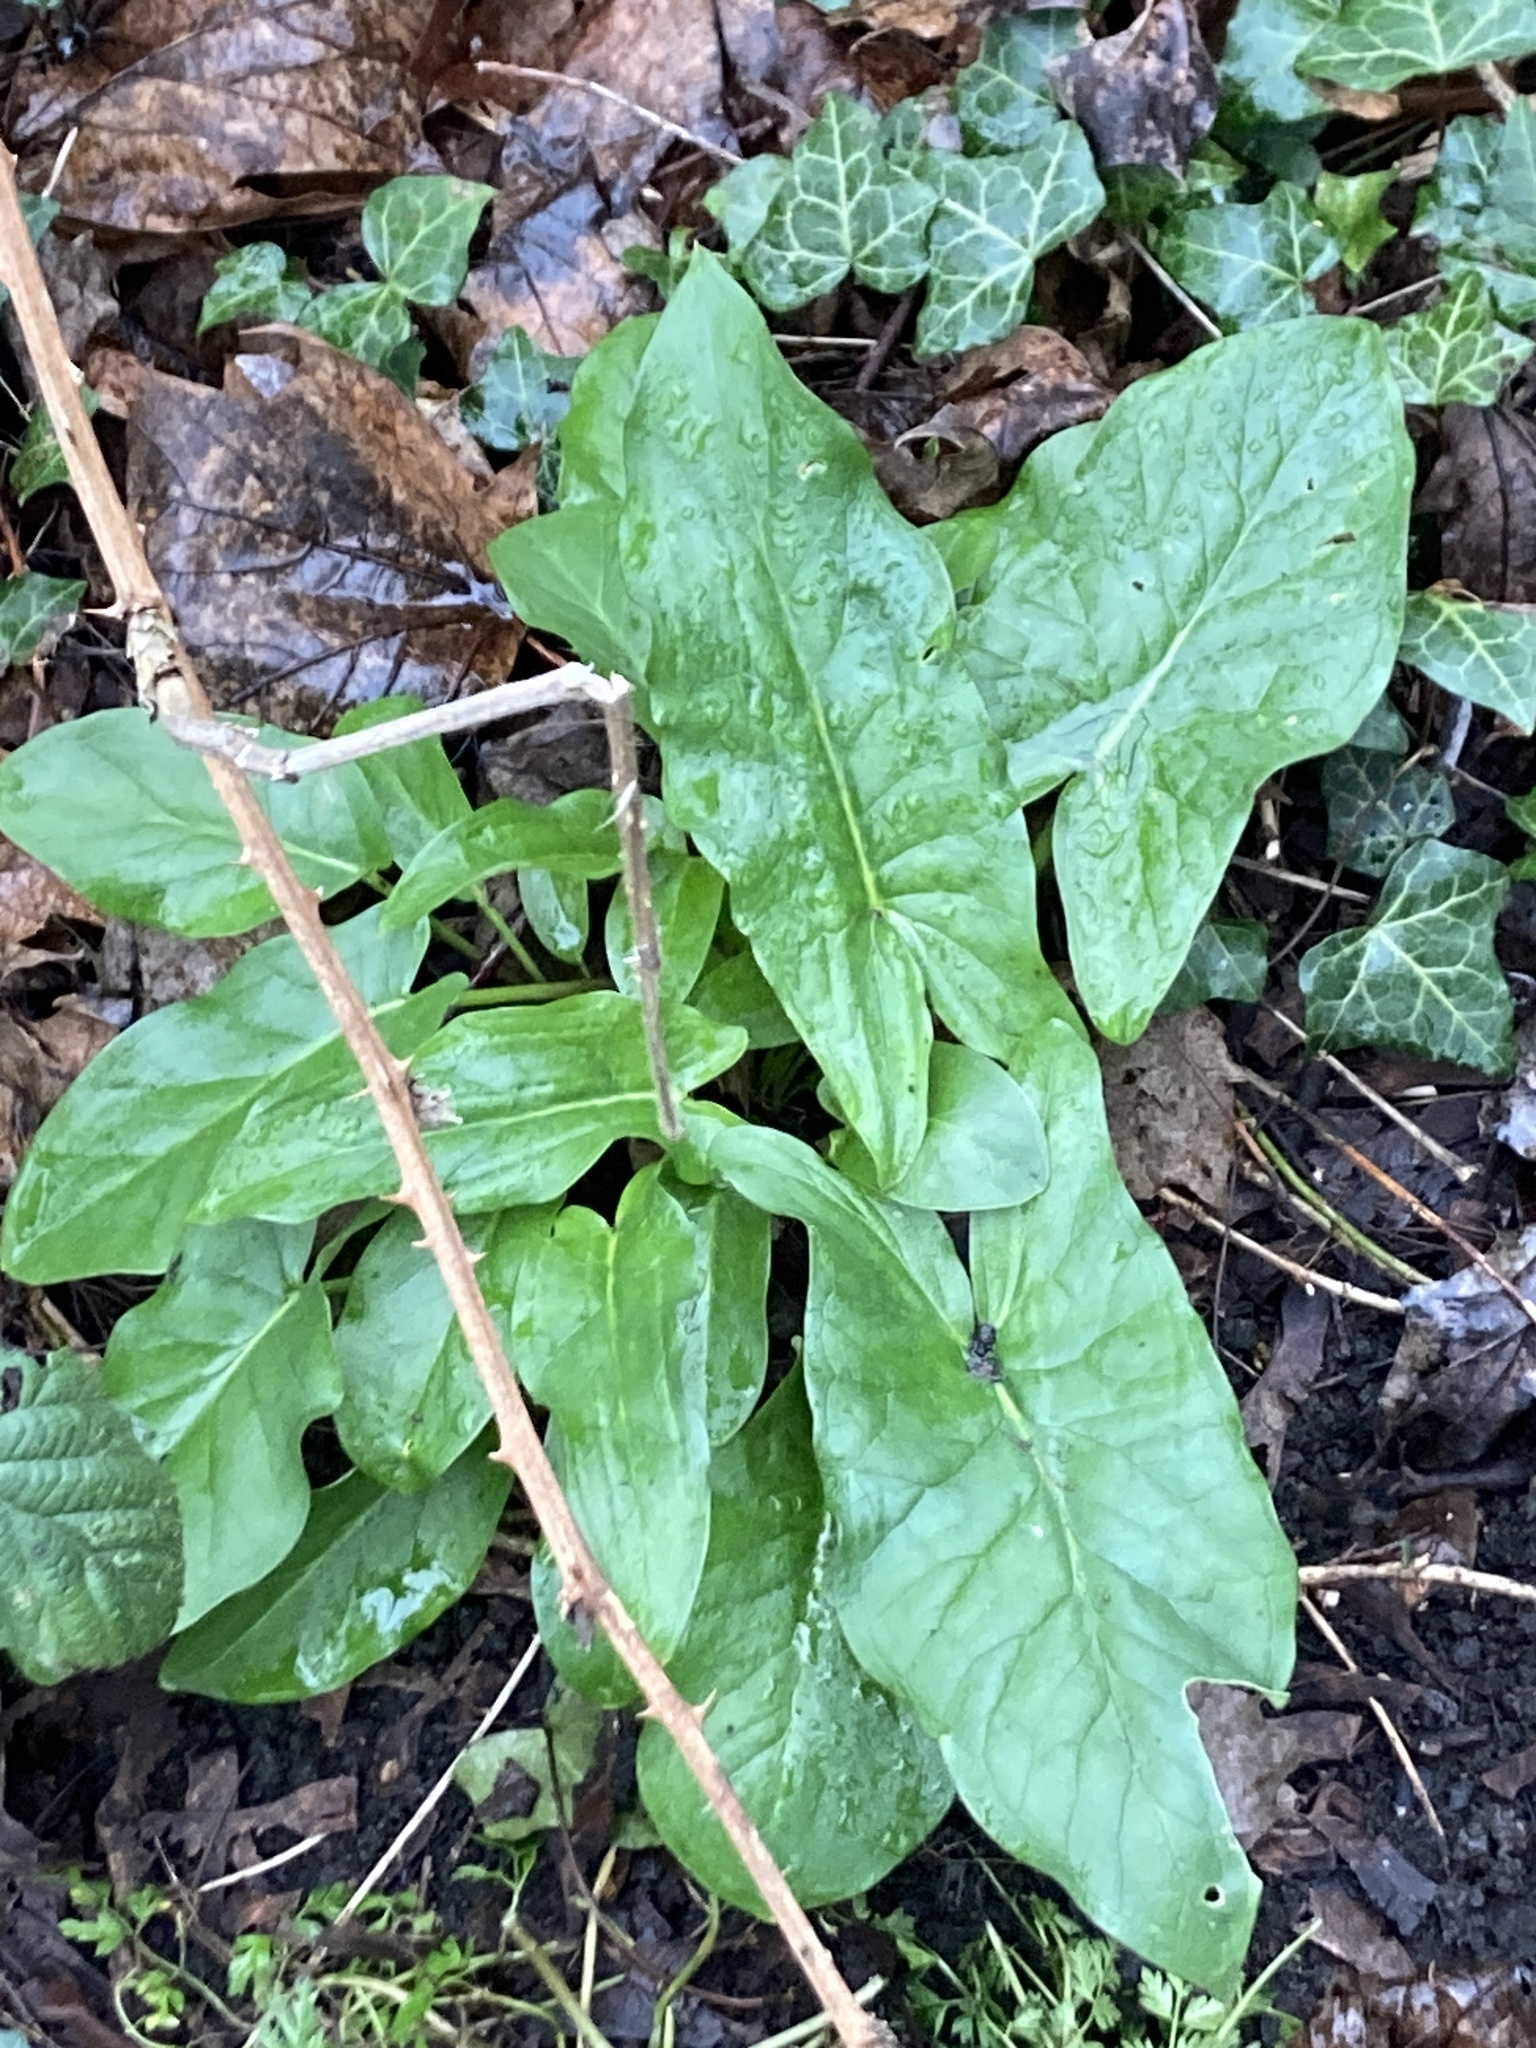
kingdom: Plantae
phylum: Tracheophyta
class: Liliopsida
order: Alismatales
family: Araceae
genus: Arum
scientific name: Arum maculatum
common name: Lords-and-ladies
